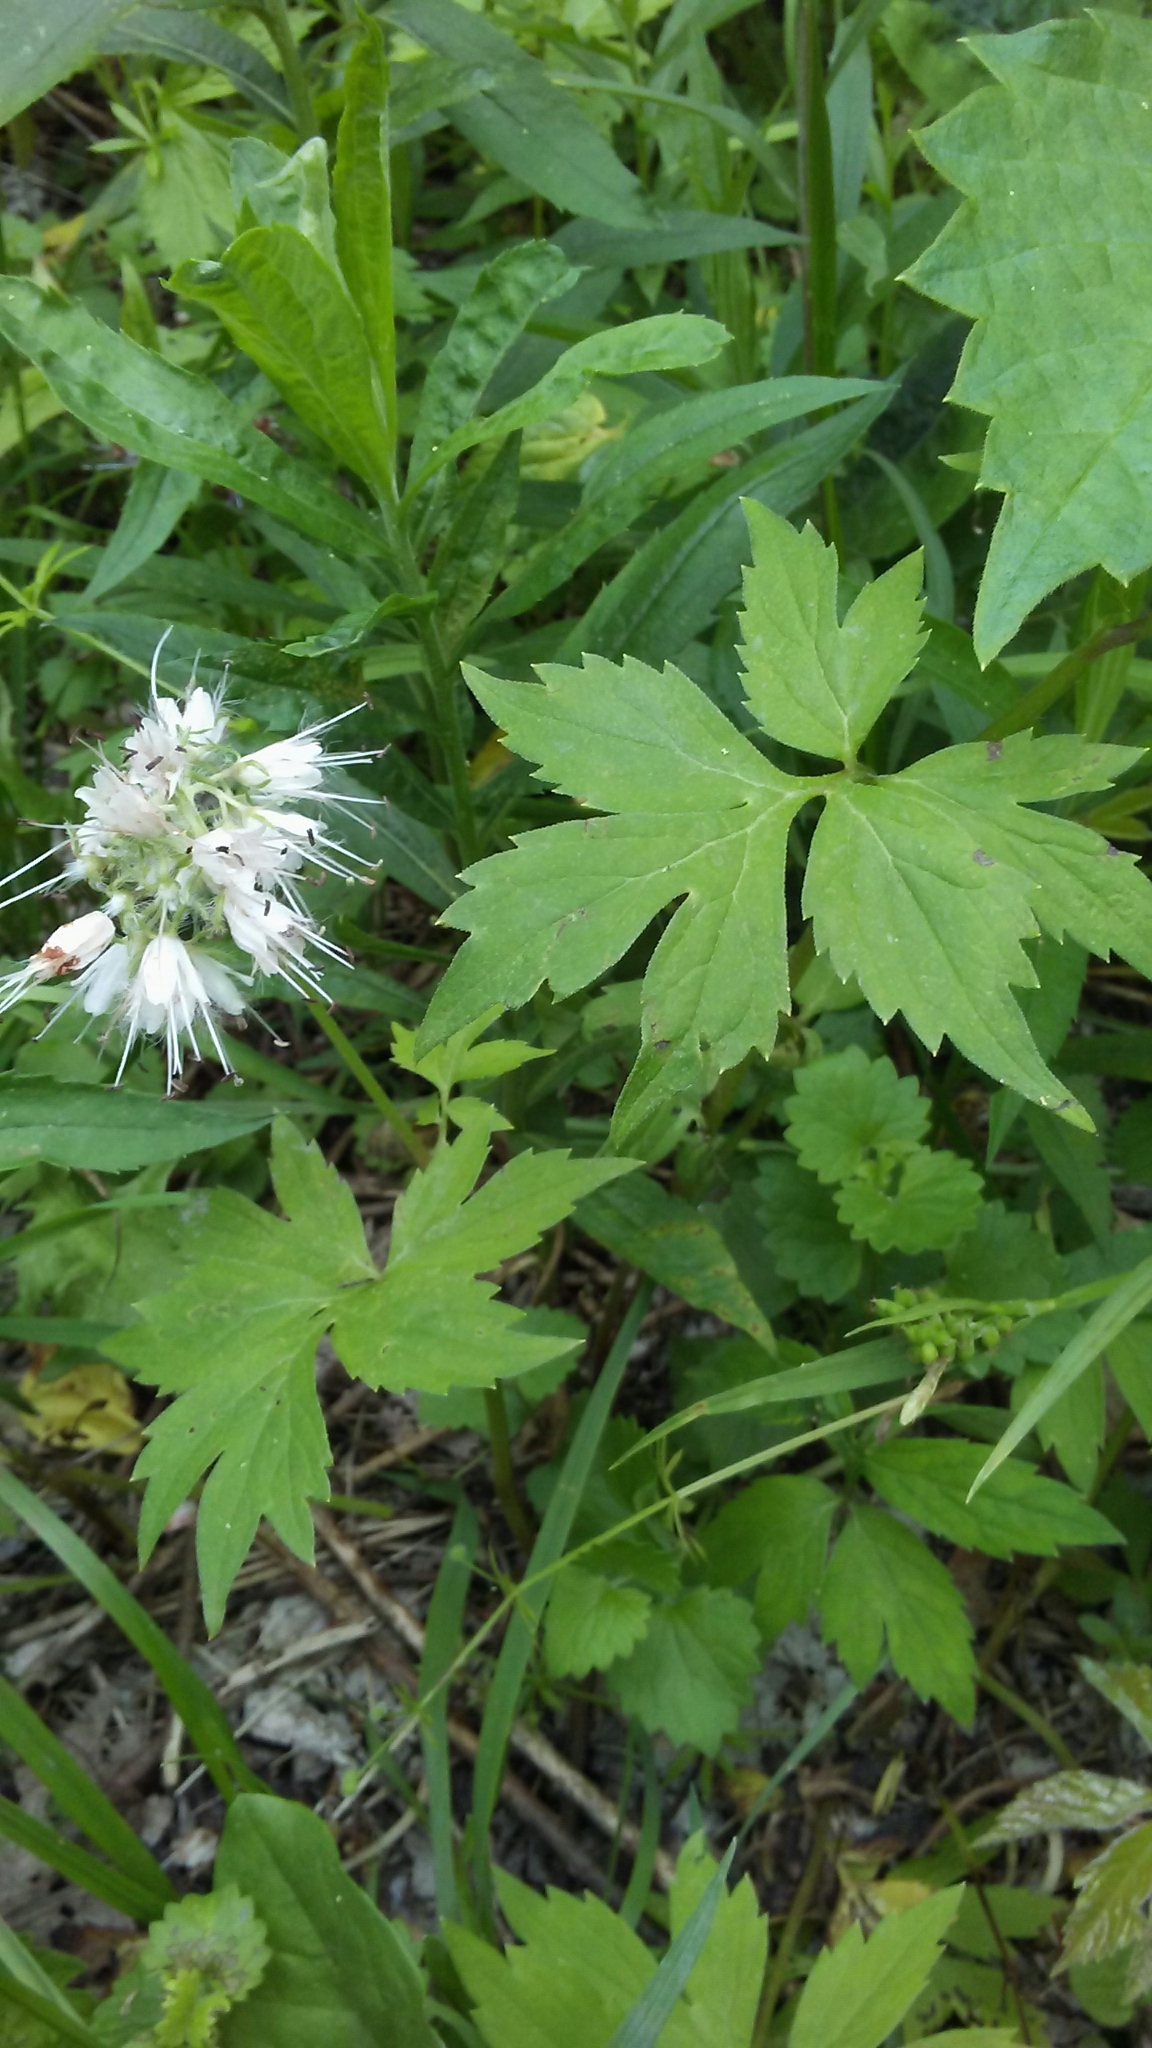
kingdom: Plantae
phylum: Tracheophyta
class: Magnoliopsida
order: Boraginales
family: Hydrophyllaceae
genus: Hydrophyllum
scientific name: Hydrophyllum virginianum
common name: Virginia waterleaf
